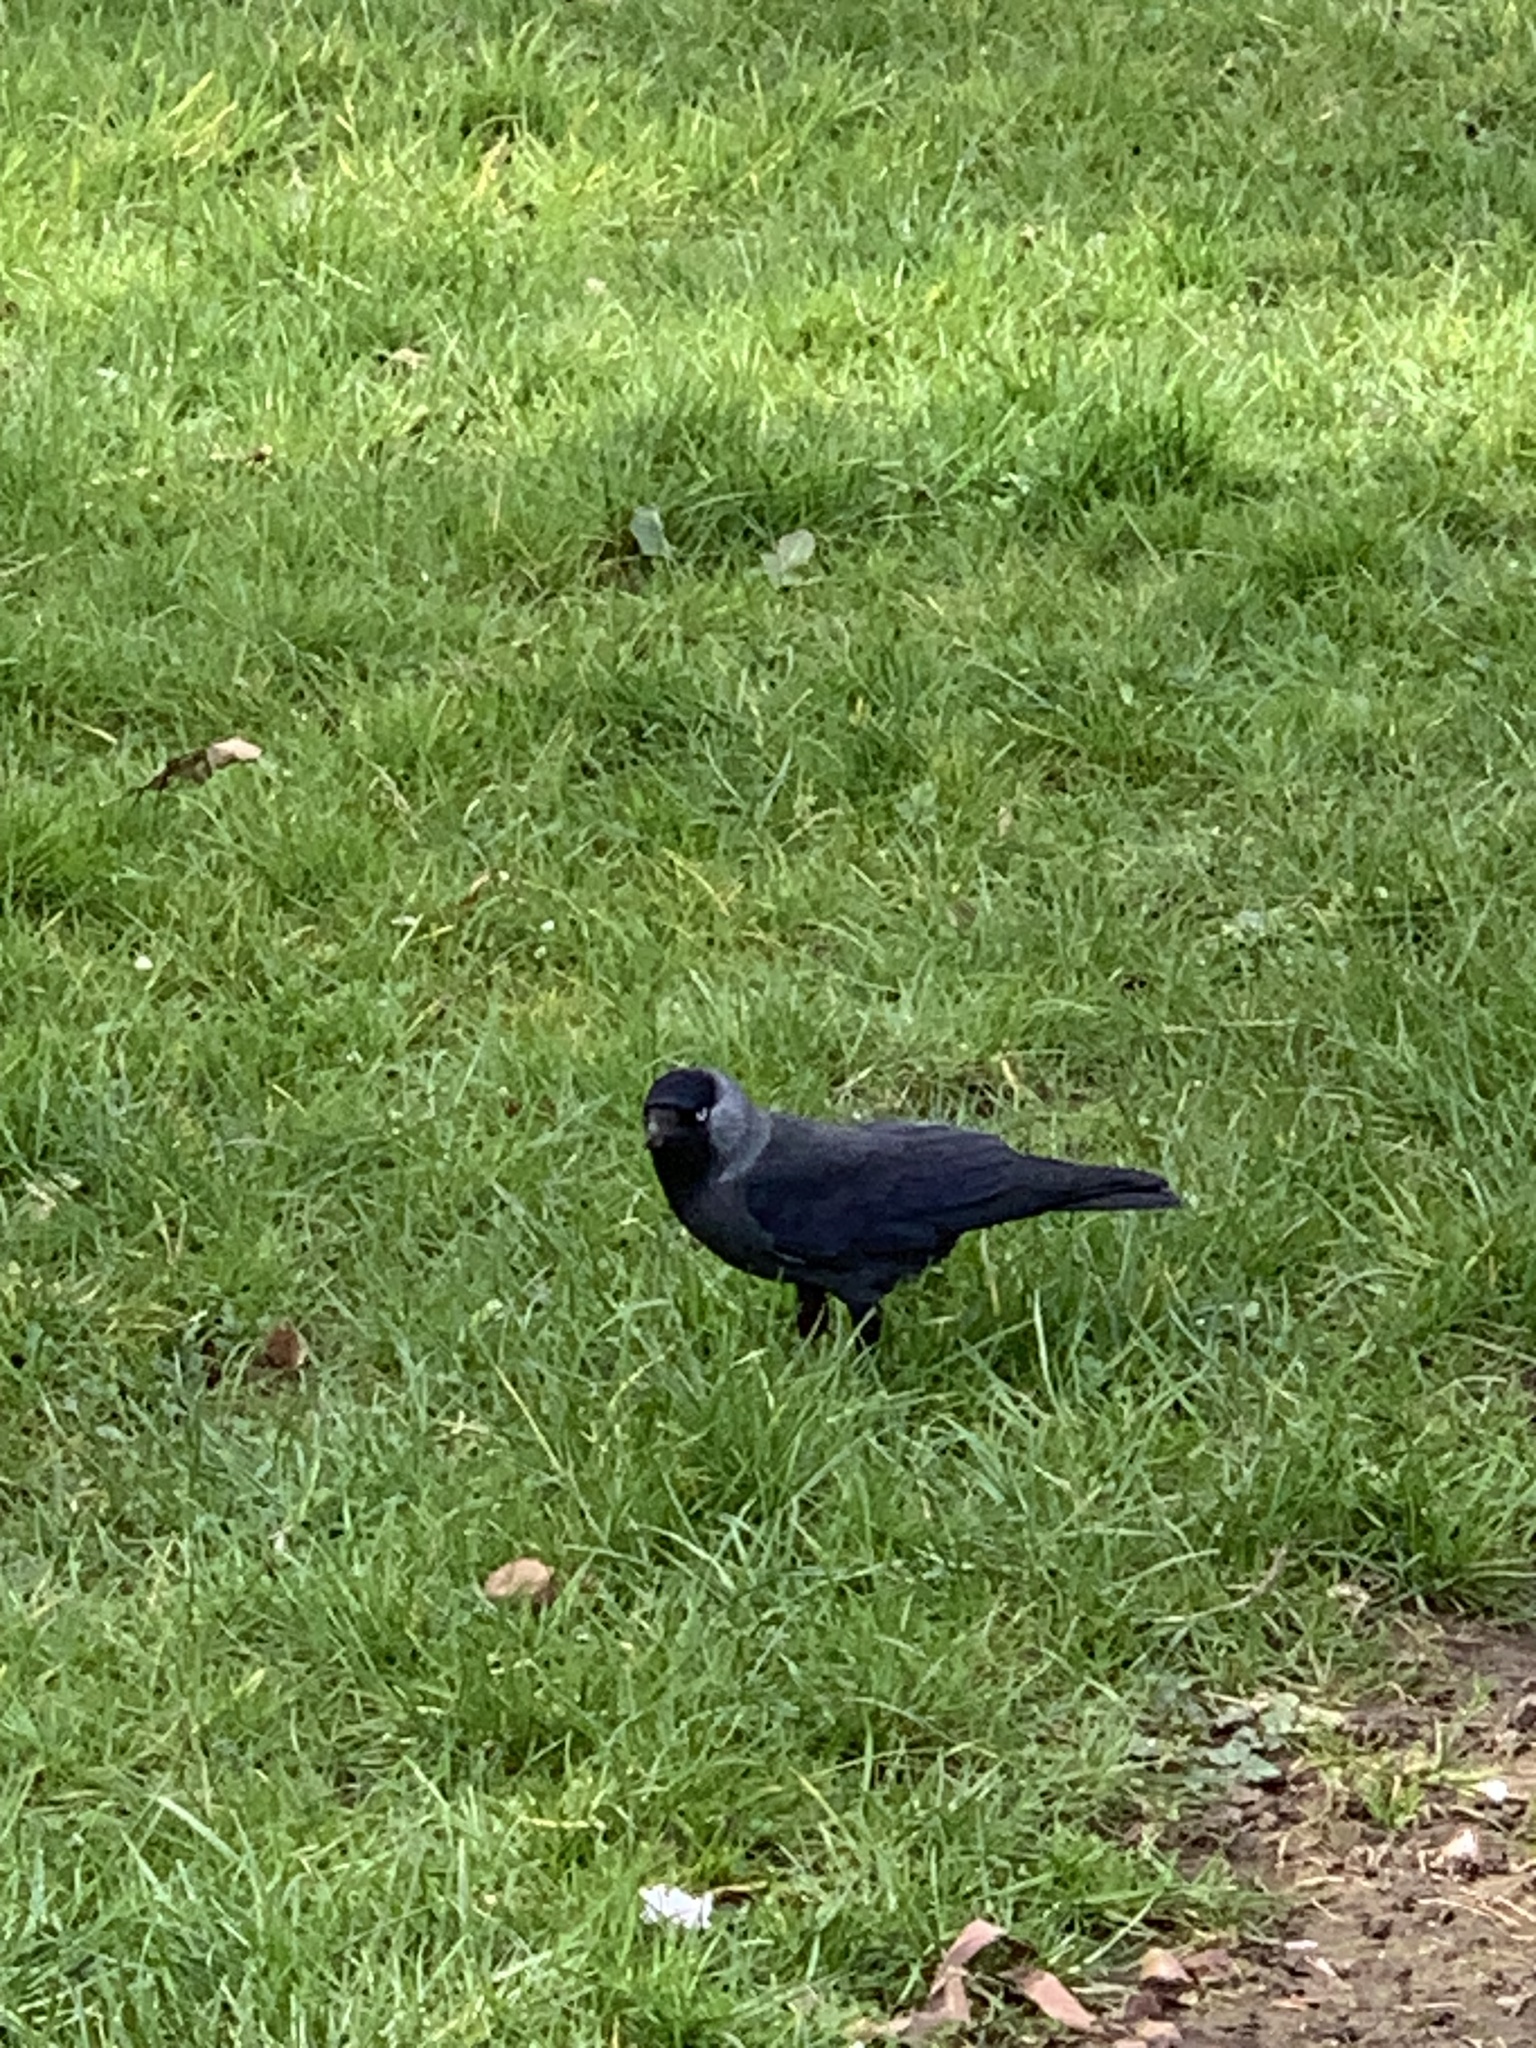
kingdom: Animalia
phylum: Chordata
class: Aves
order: Passeriformes
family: Corvidae
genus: Coloeus
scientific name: Coloeus monedula
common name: Western jackdaw
